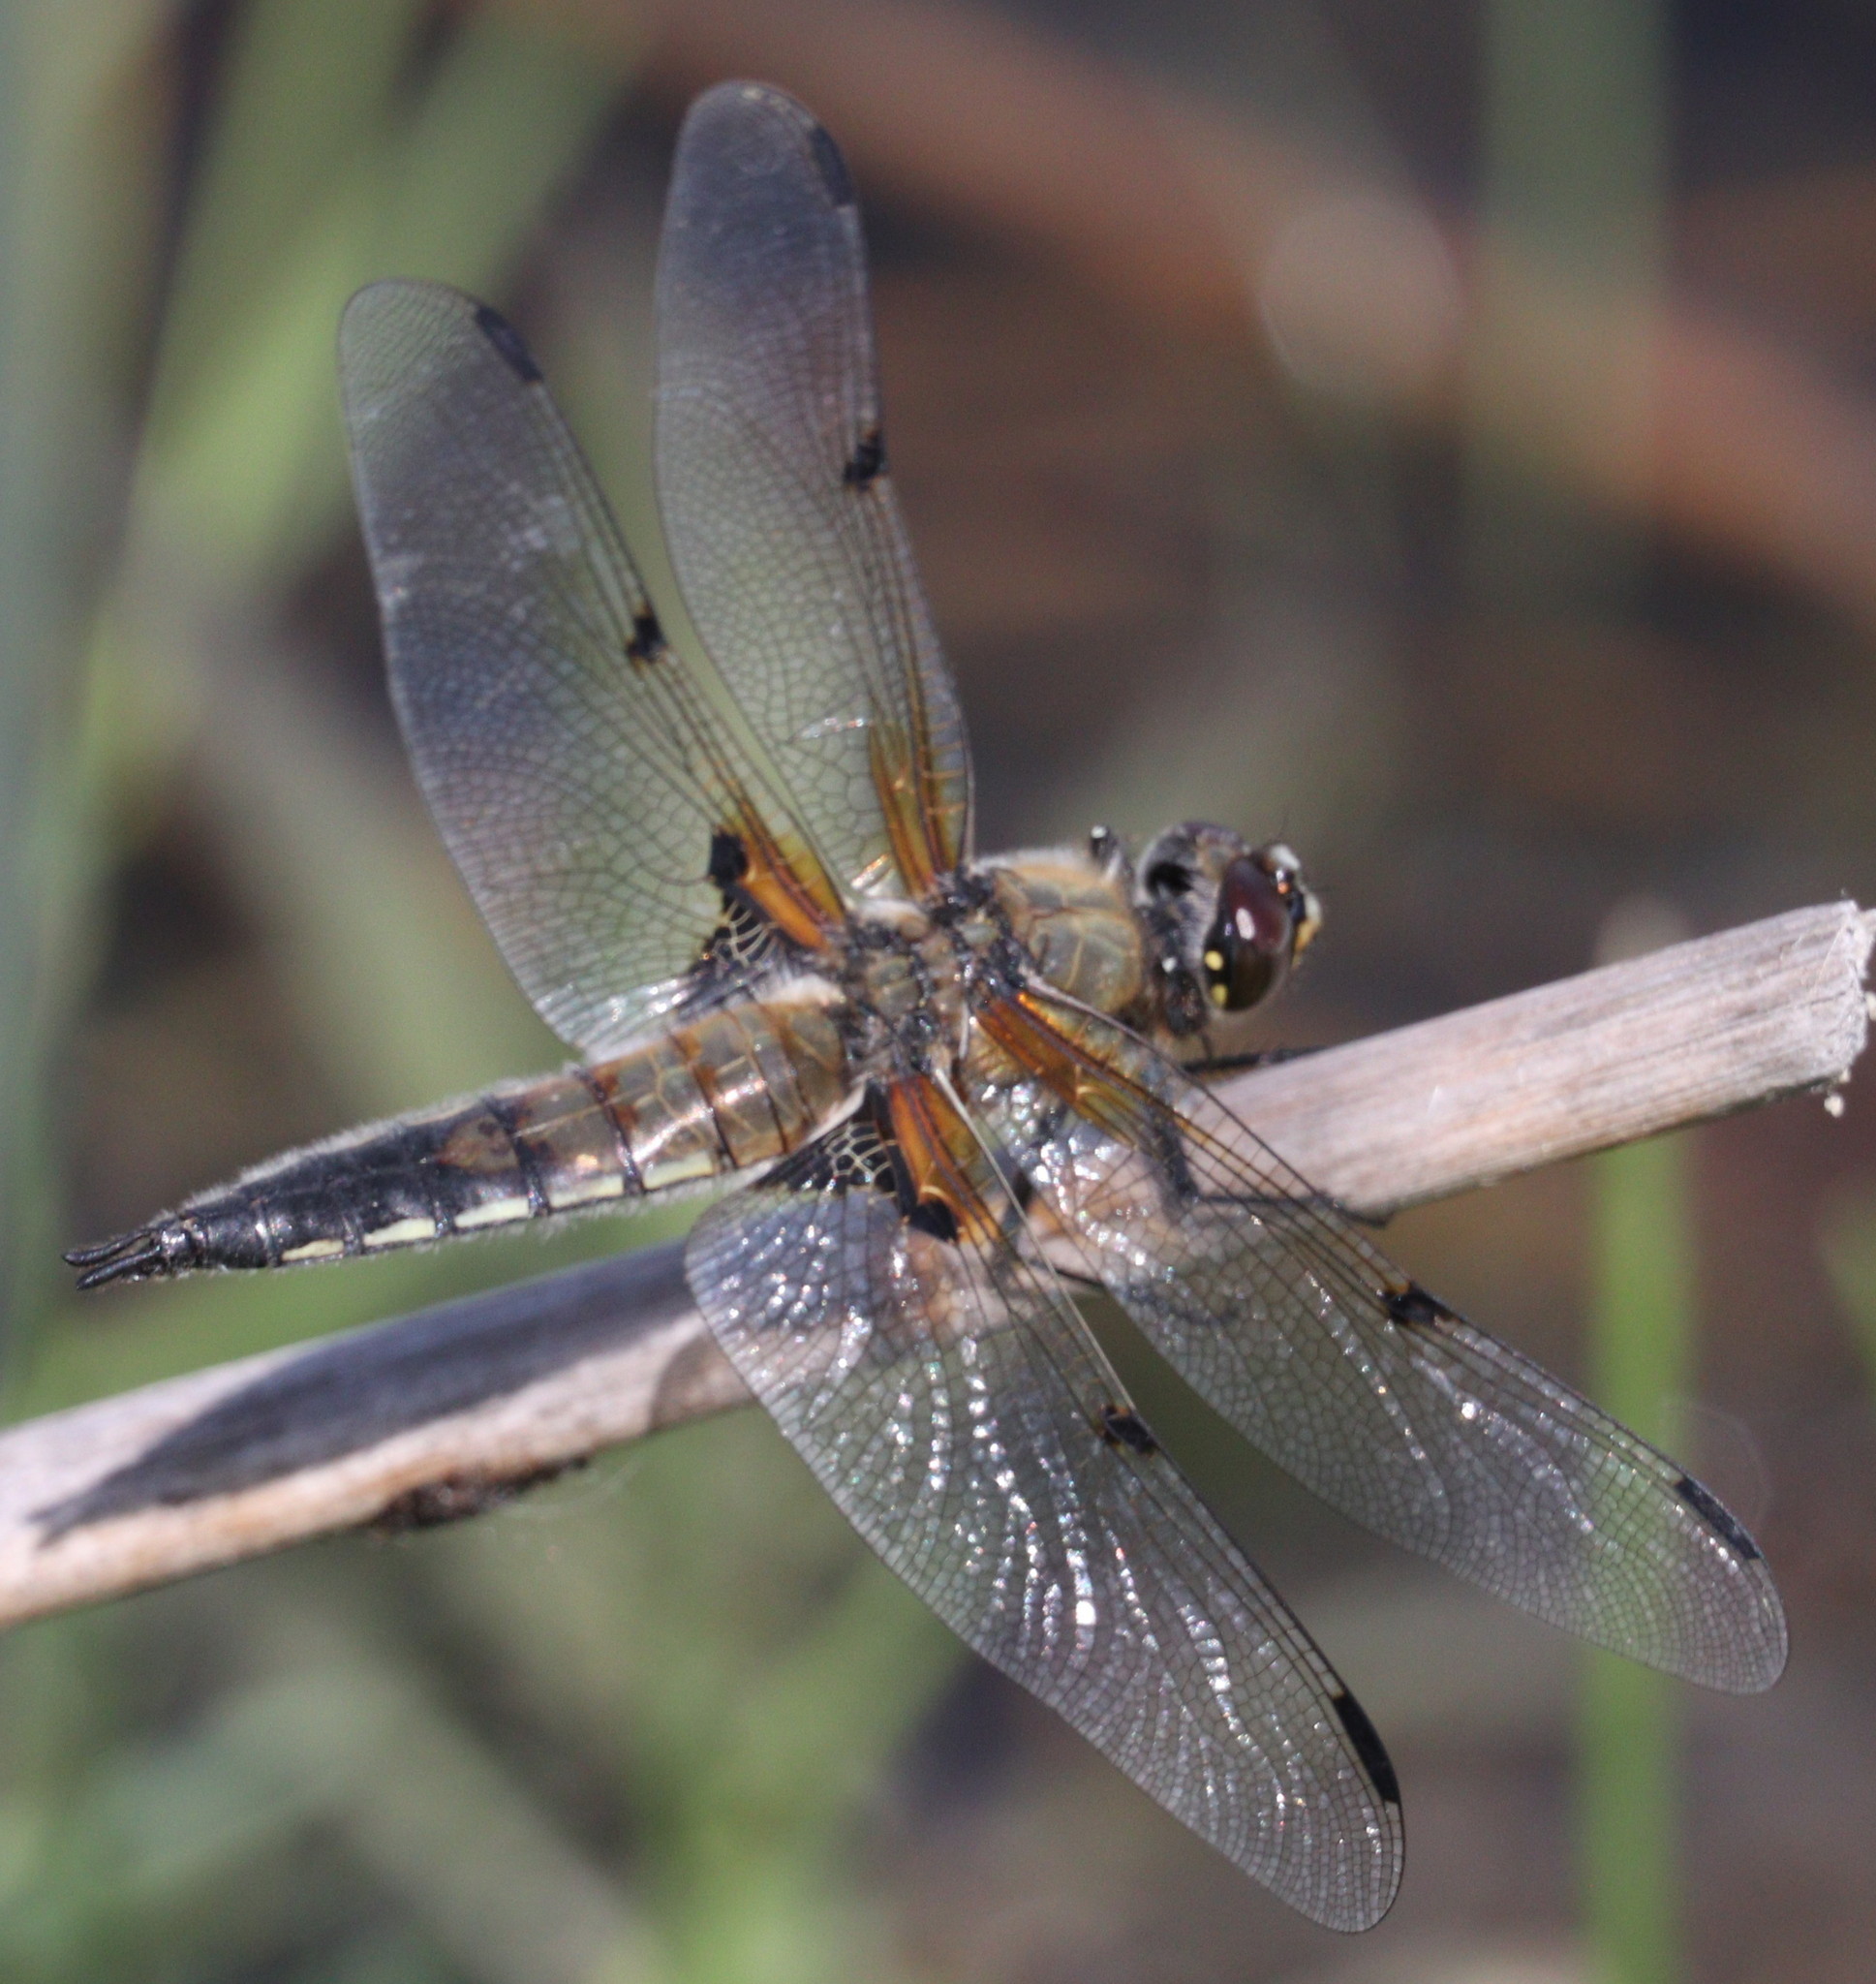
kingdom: Animalia
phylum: Arthropoda
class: Insecta
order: Odonata
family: Libellulidae
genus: Libellula
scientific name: Libellula quadrimaculata
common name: Four-spotted chaser
